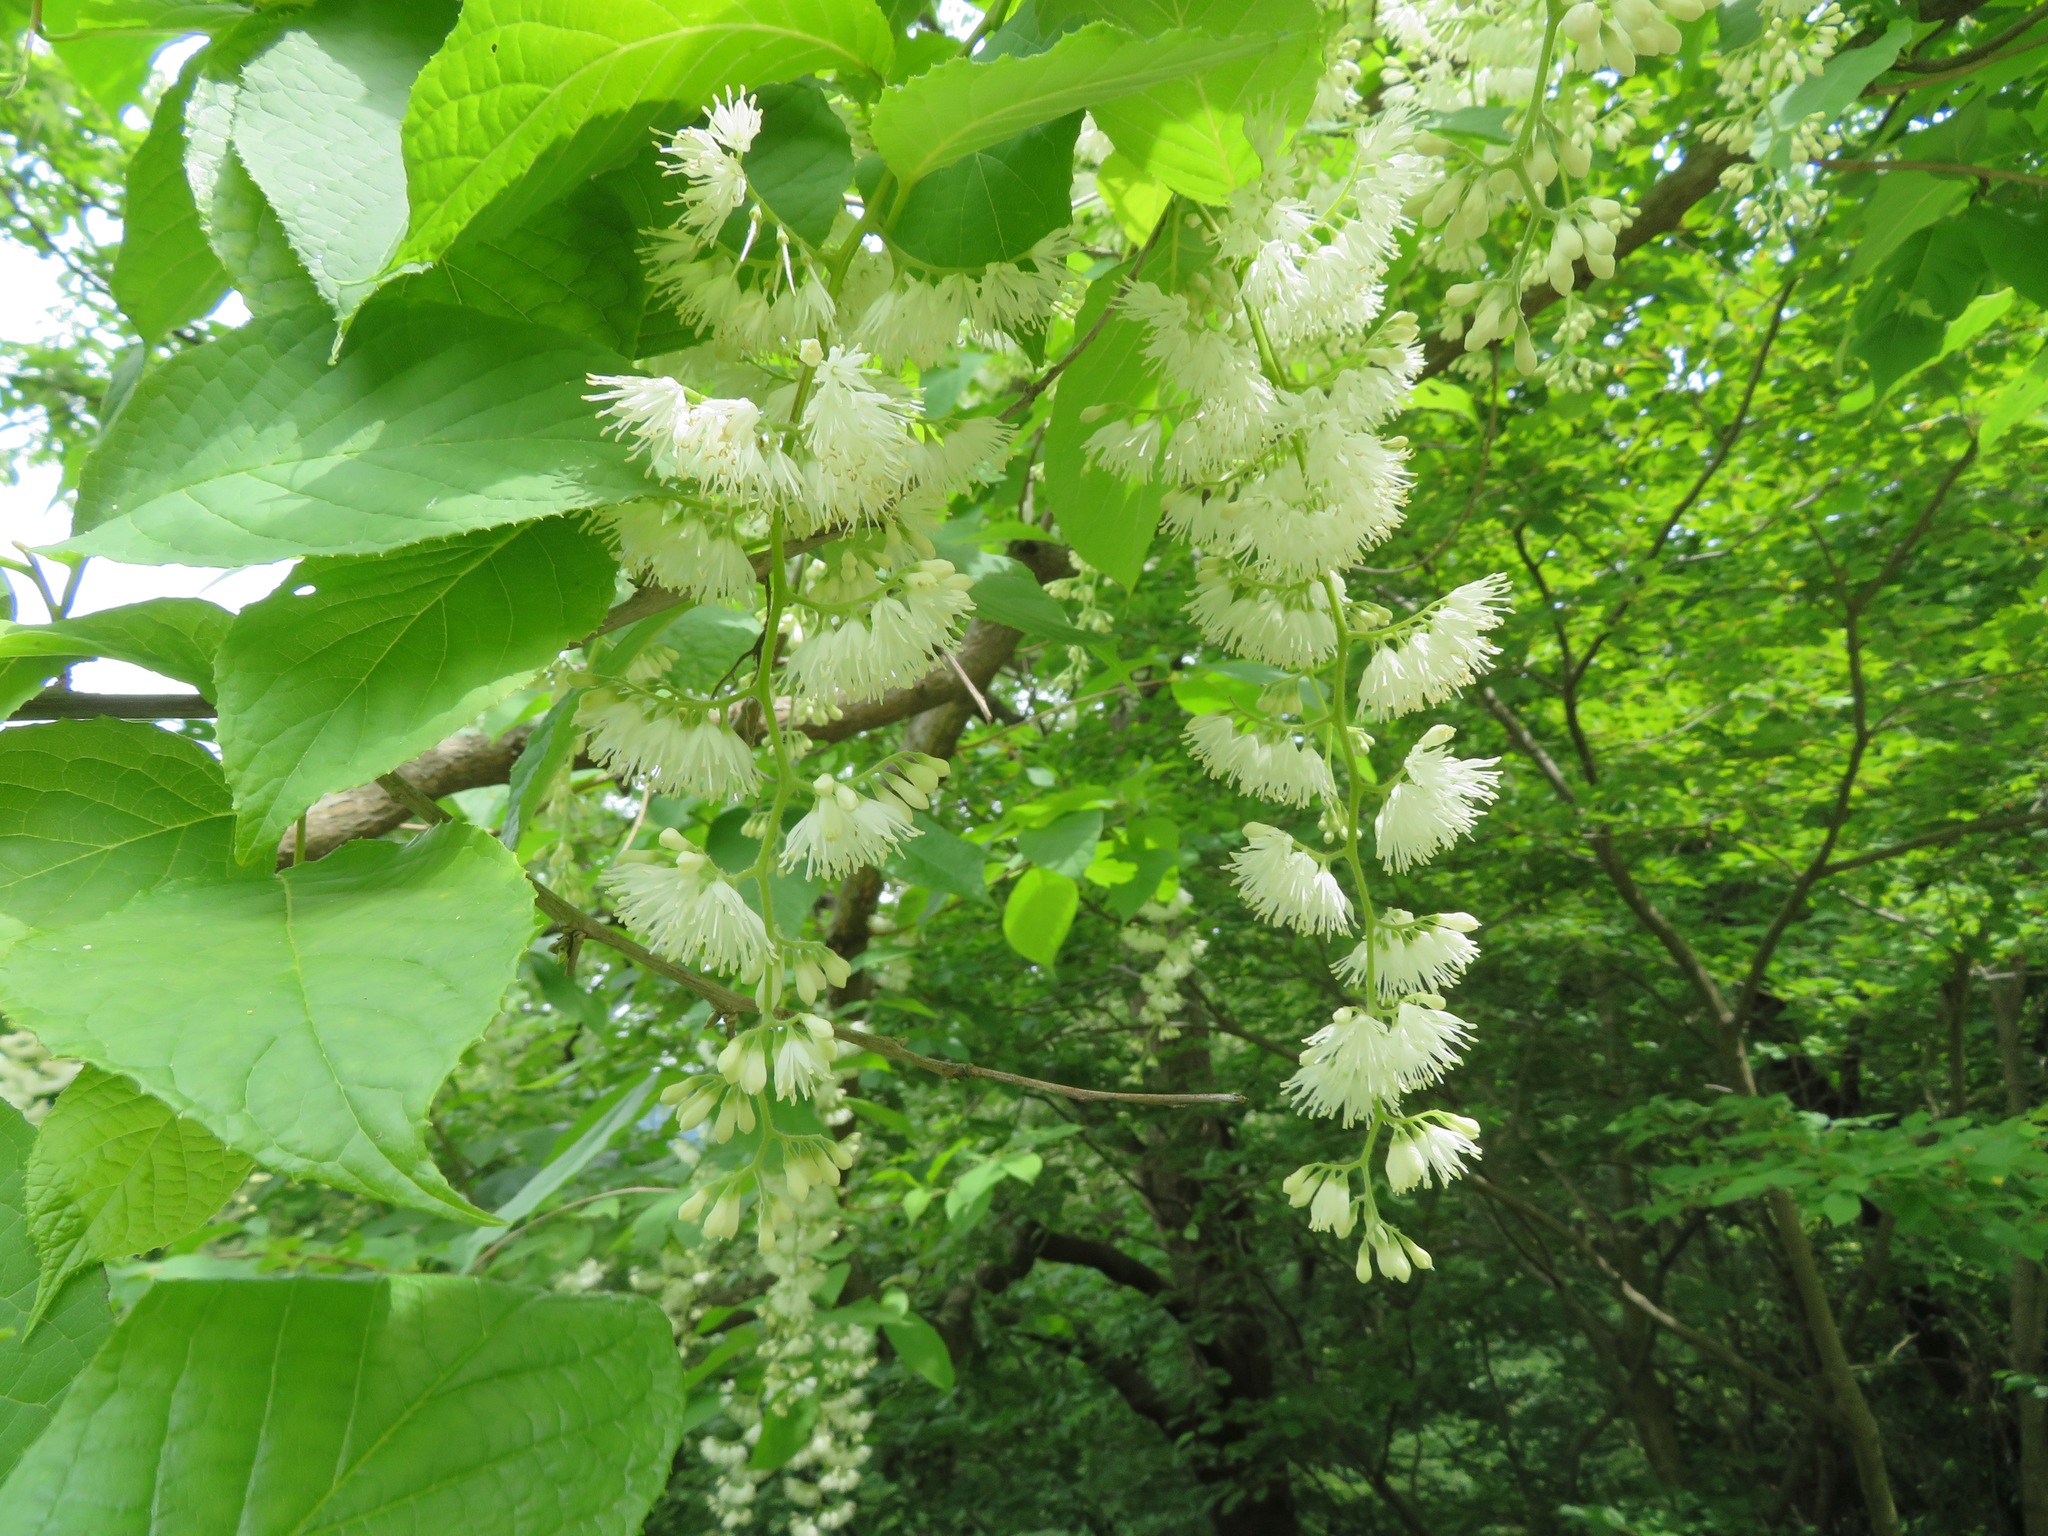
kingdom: Plantae
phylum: Tracheophyta
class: Magnoliopsida
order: Ericales
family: Styracaceae
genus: Pterostyrax
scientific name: Pterostyrax hispidus
